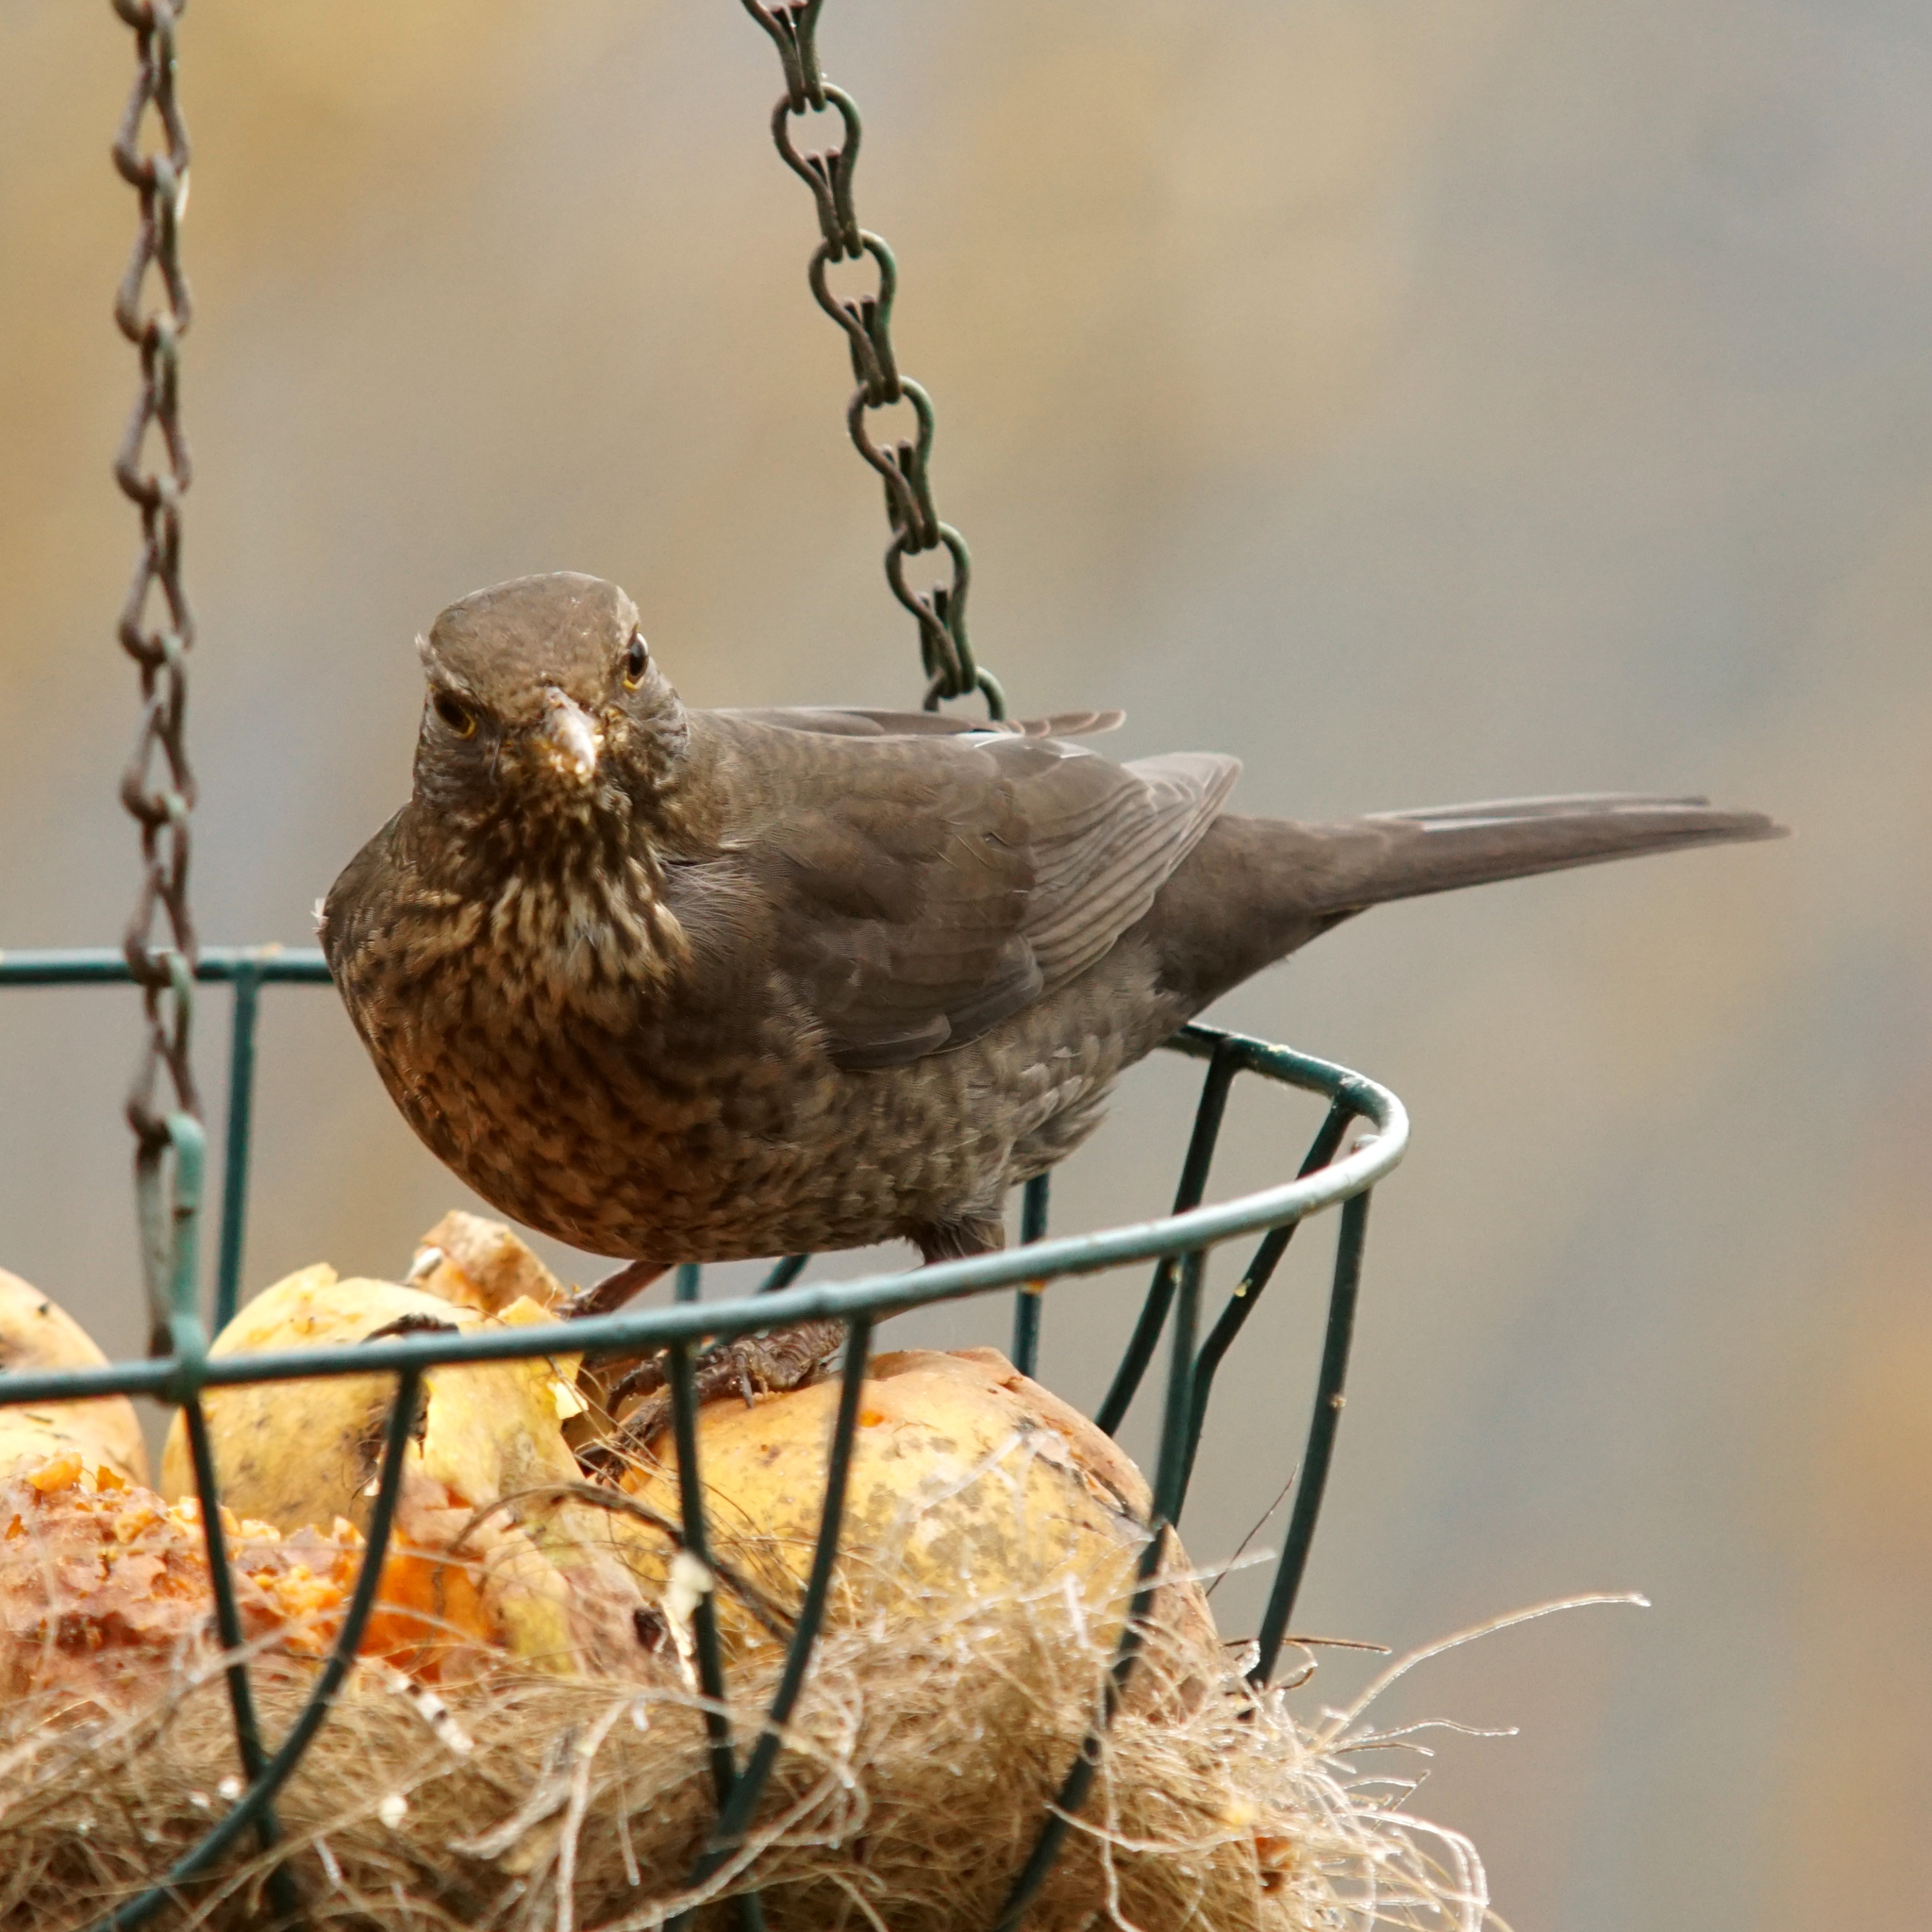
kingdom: Animalia
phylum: Chordata
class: Aves
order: Passeriformes
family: Turdidae
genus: Turdus
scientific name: Turdus merula
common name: Common blackbird
